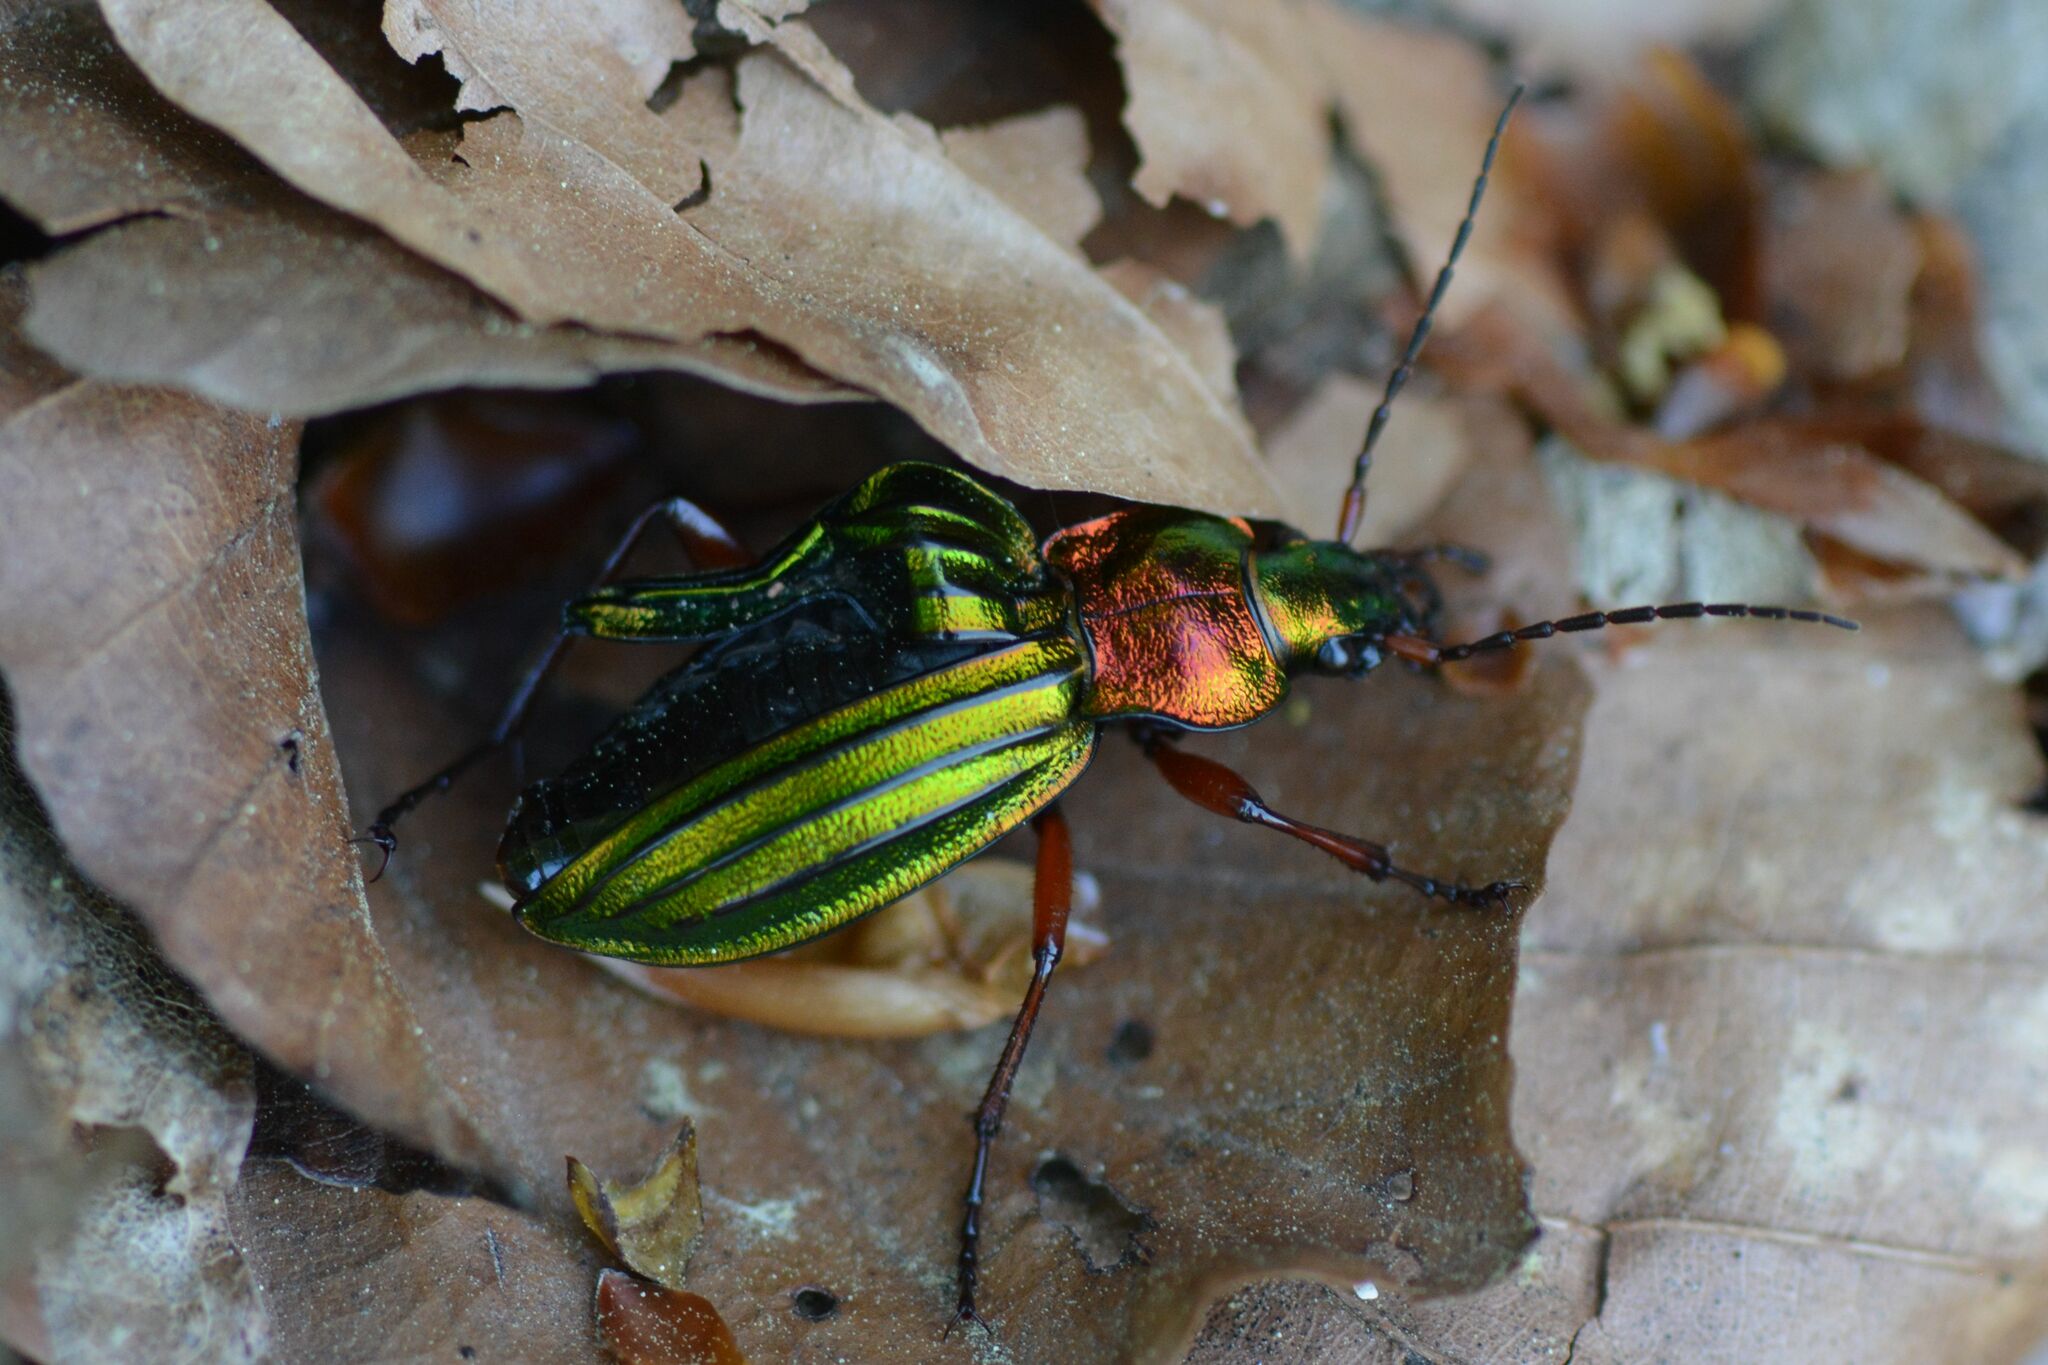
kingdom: Animalia
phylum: Arthropoda
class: Insecta
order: Coleoptera
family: Carabidae
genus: Carabus
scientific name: Carabus auronitens
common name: Carabus auronitens
